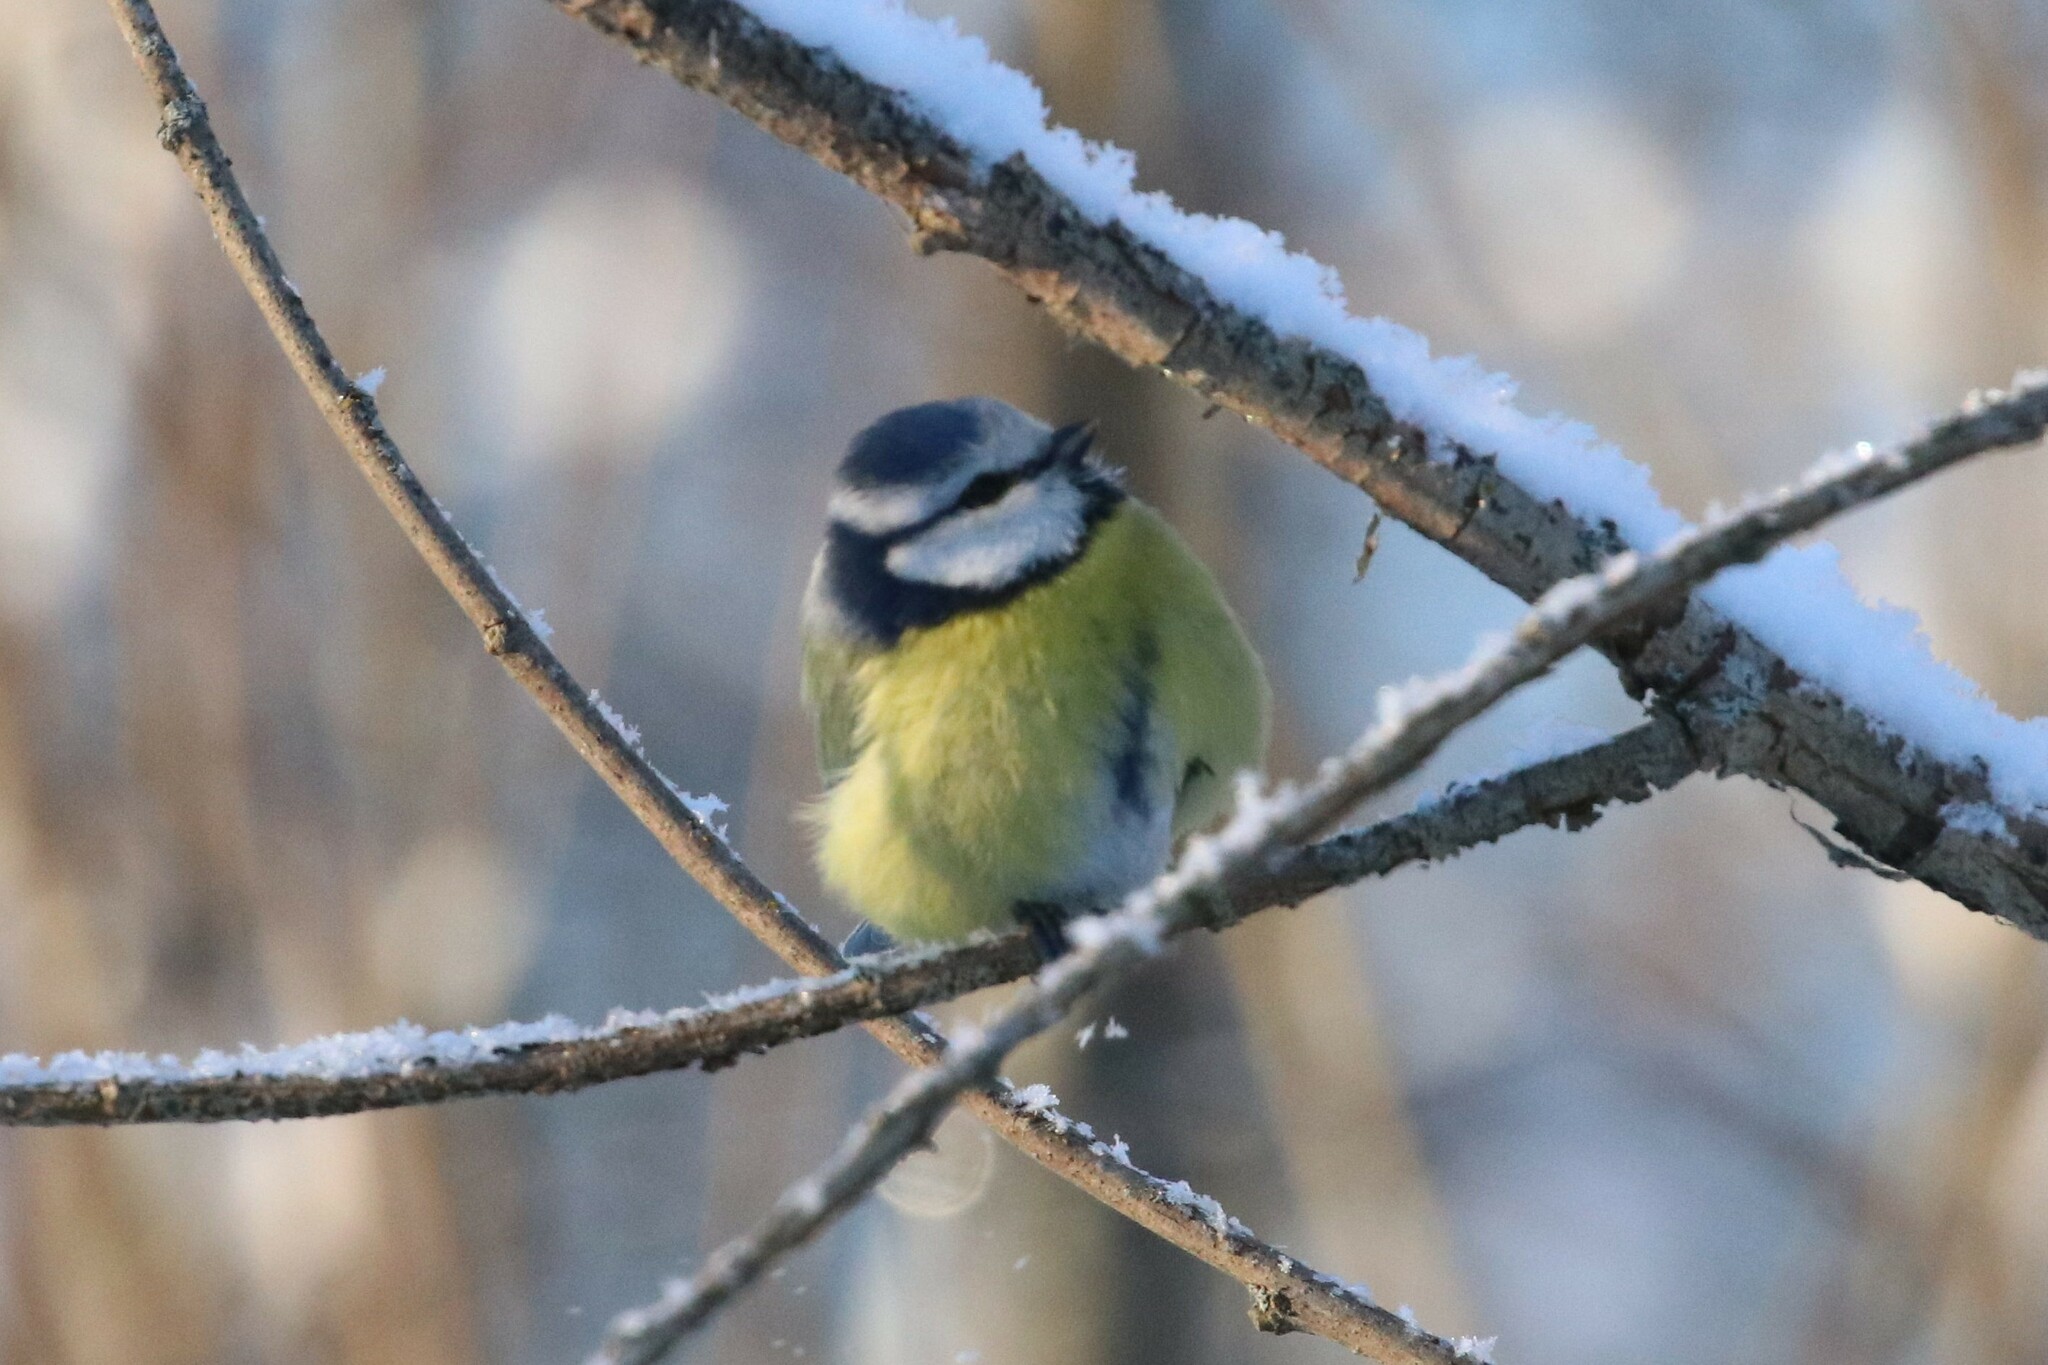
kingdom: Animalia
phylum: Chordata
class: Aves
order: Passeriformes
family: Paridae
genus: Cyanistes
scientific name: Cyanistes caeruleus
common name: Eurasian blue tit
